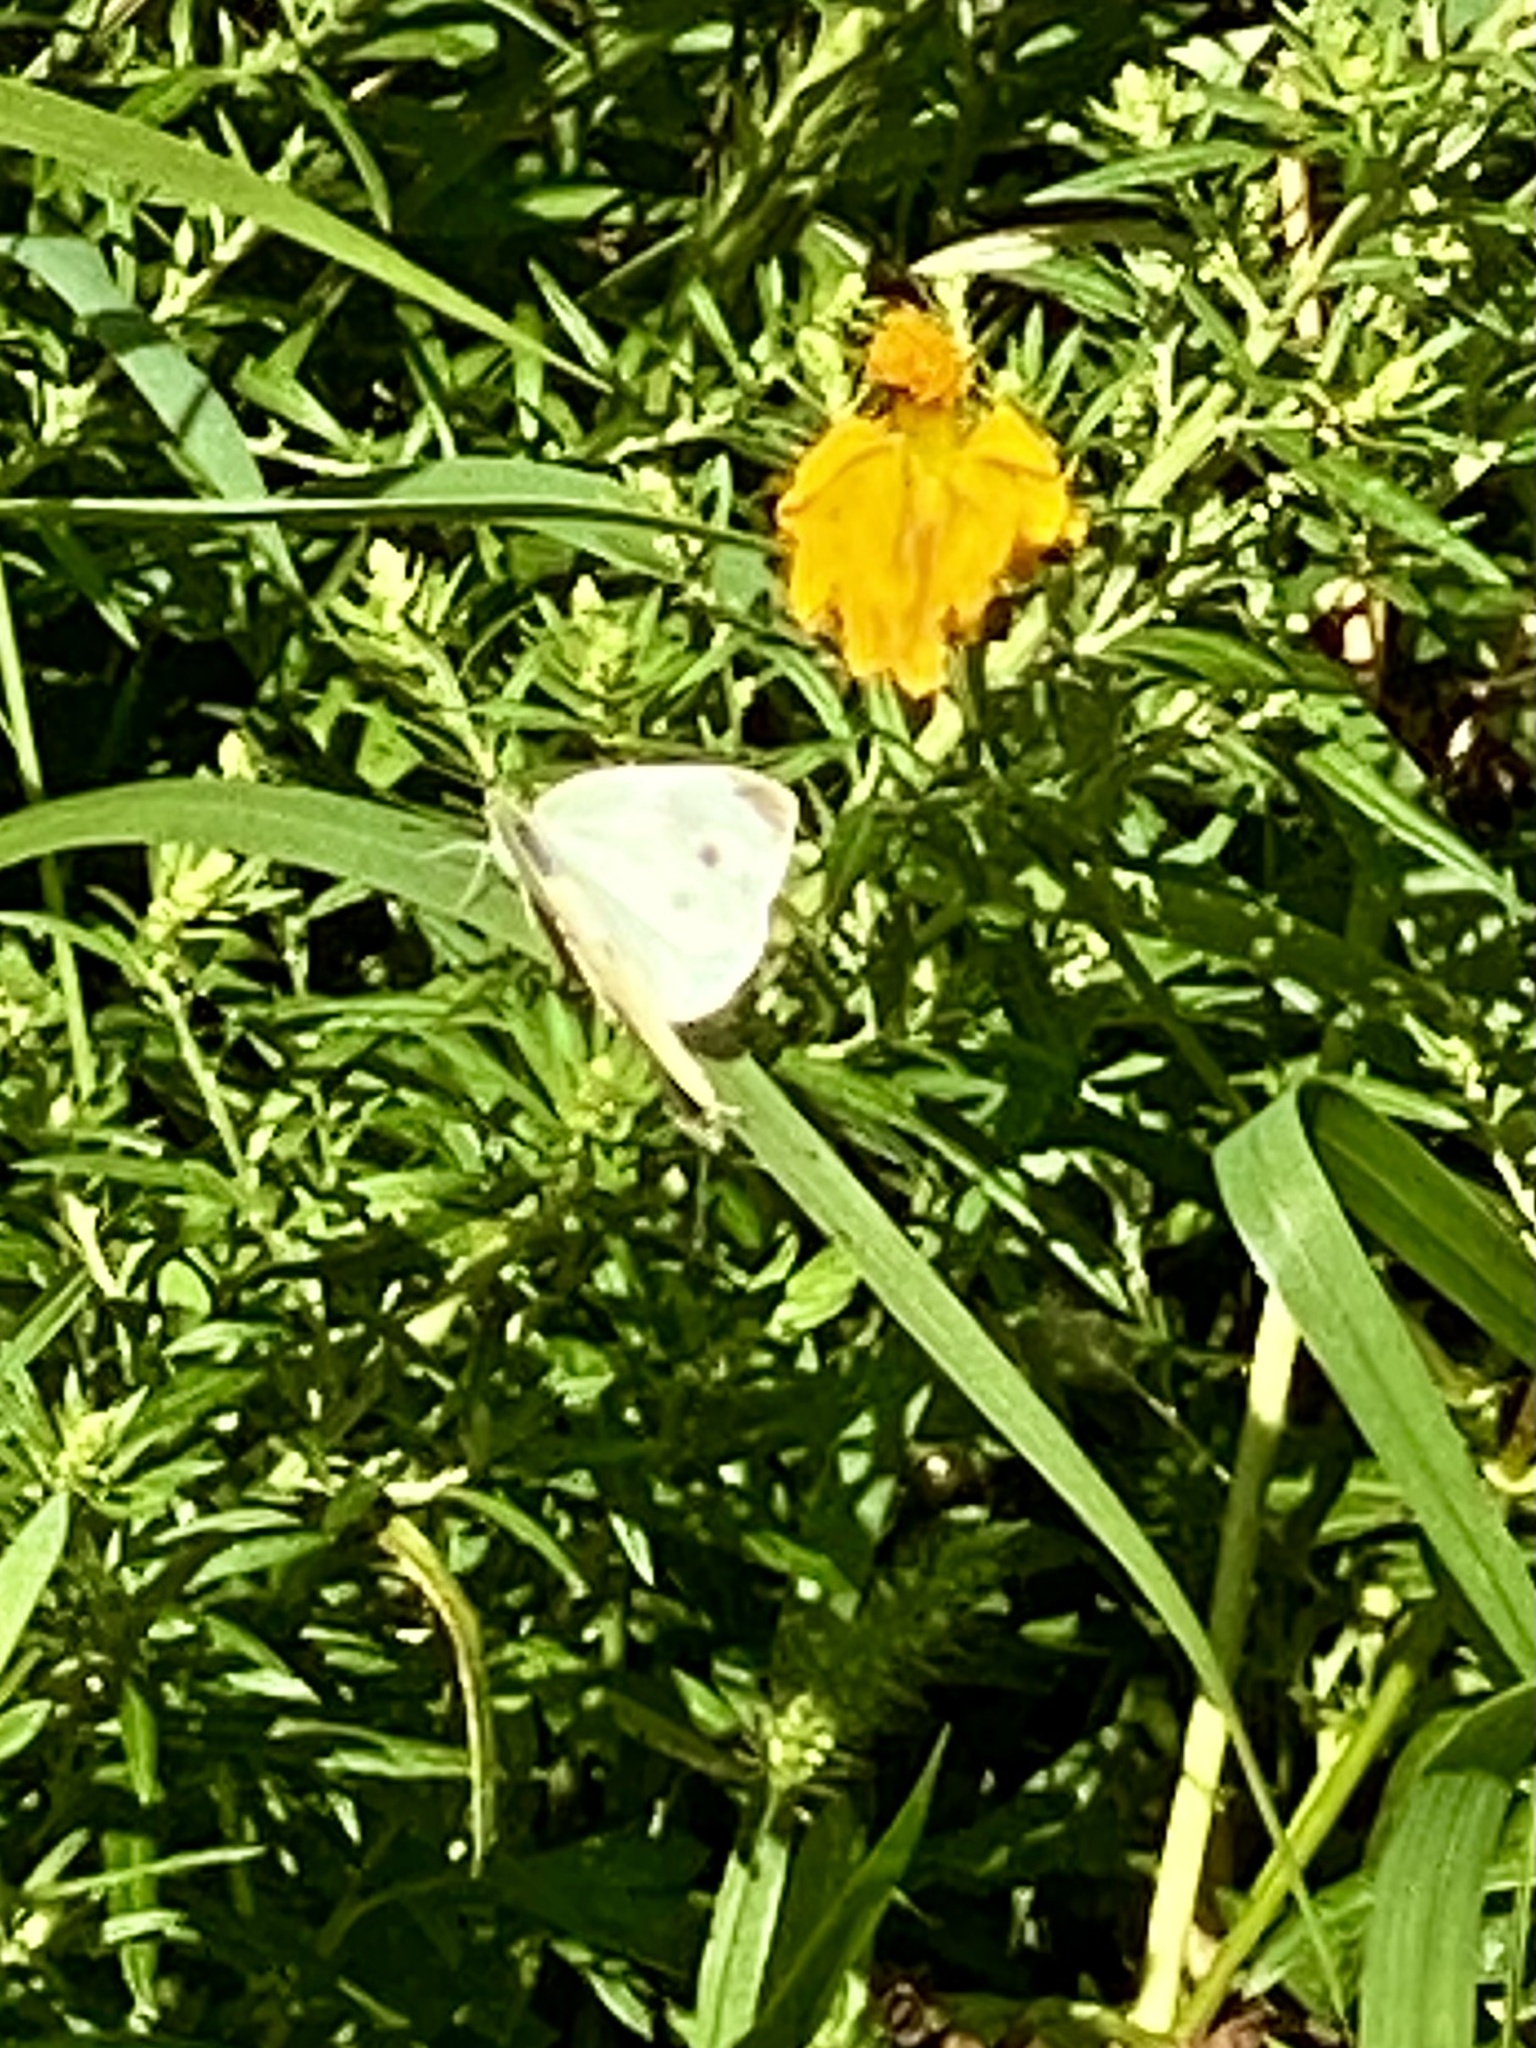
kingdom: Animalia
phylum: Arthropoda
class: Insecta
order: Lepidoptera
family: Pieridae
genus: Pieris
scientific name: Pieris rapae
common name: Small white
